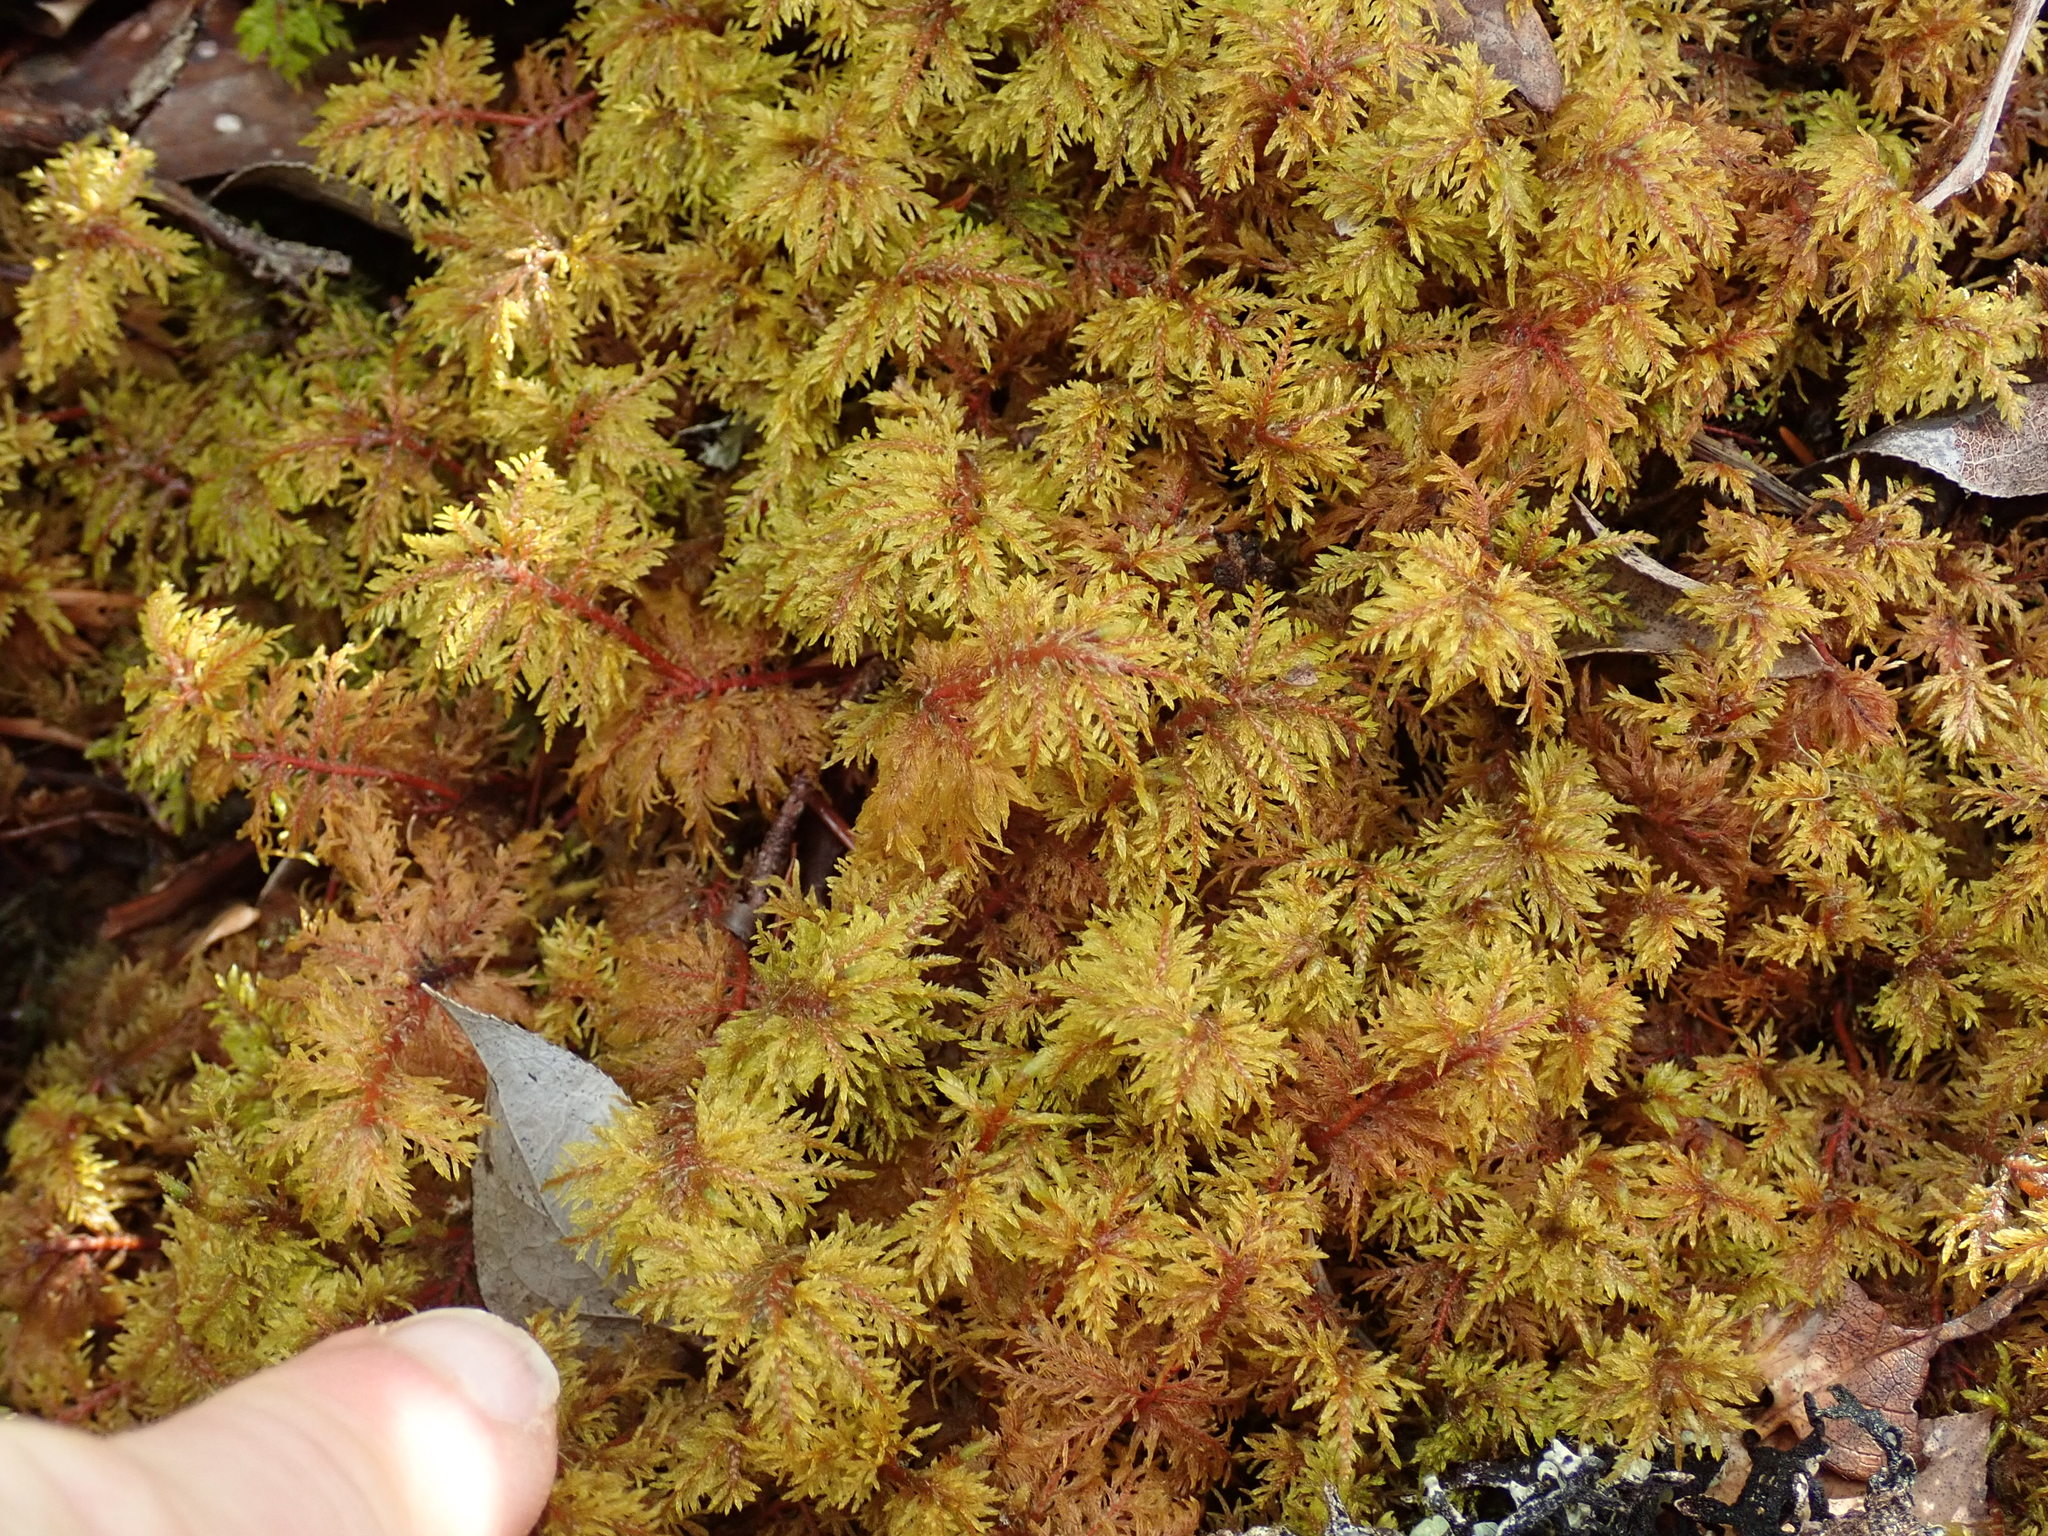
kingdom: Plantae
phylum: Bryophyta
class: Bryopsida
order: Hypnales
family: Hylocomiaceae
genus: Hylocomium
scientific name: Hylocomium splendens
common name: Stairstep moss
